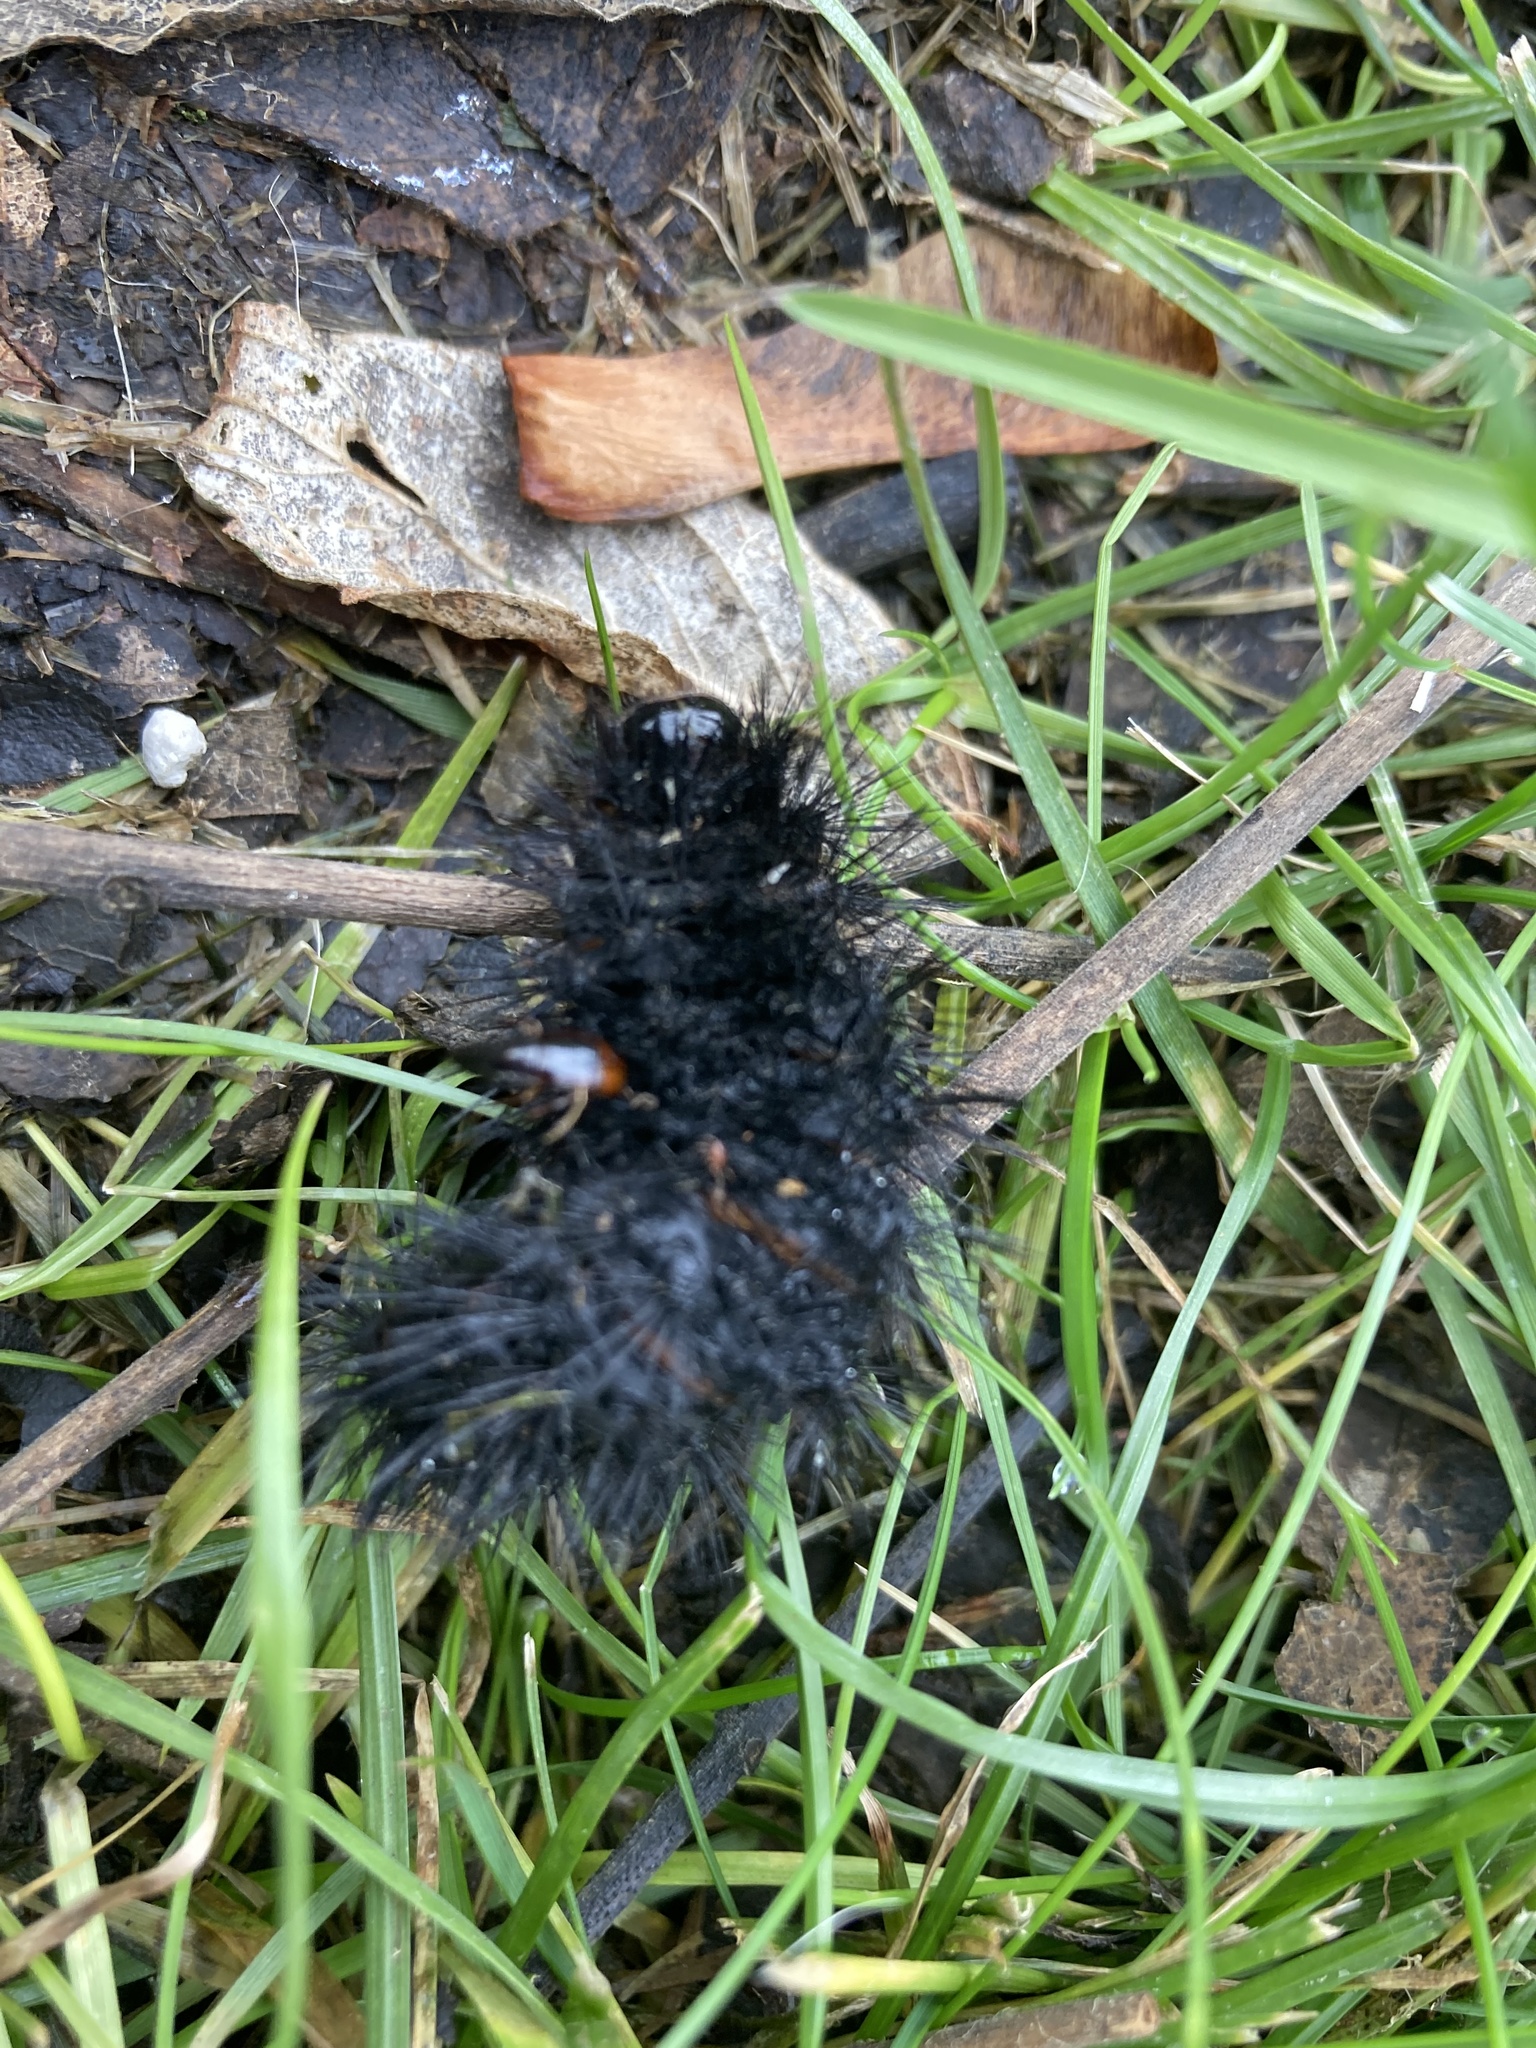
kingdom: Animalia
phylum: Arthropoda
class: Insecta
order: Lepidoptera
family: Erebidae
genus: Hypercompe
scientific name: Hypercompe scribonia
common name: Giant leopard moth
